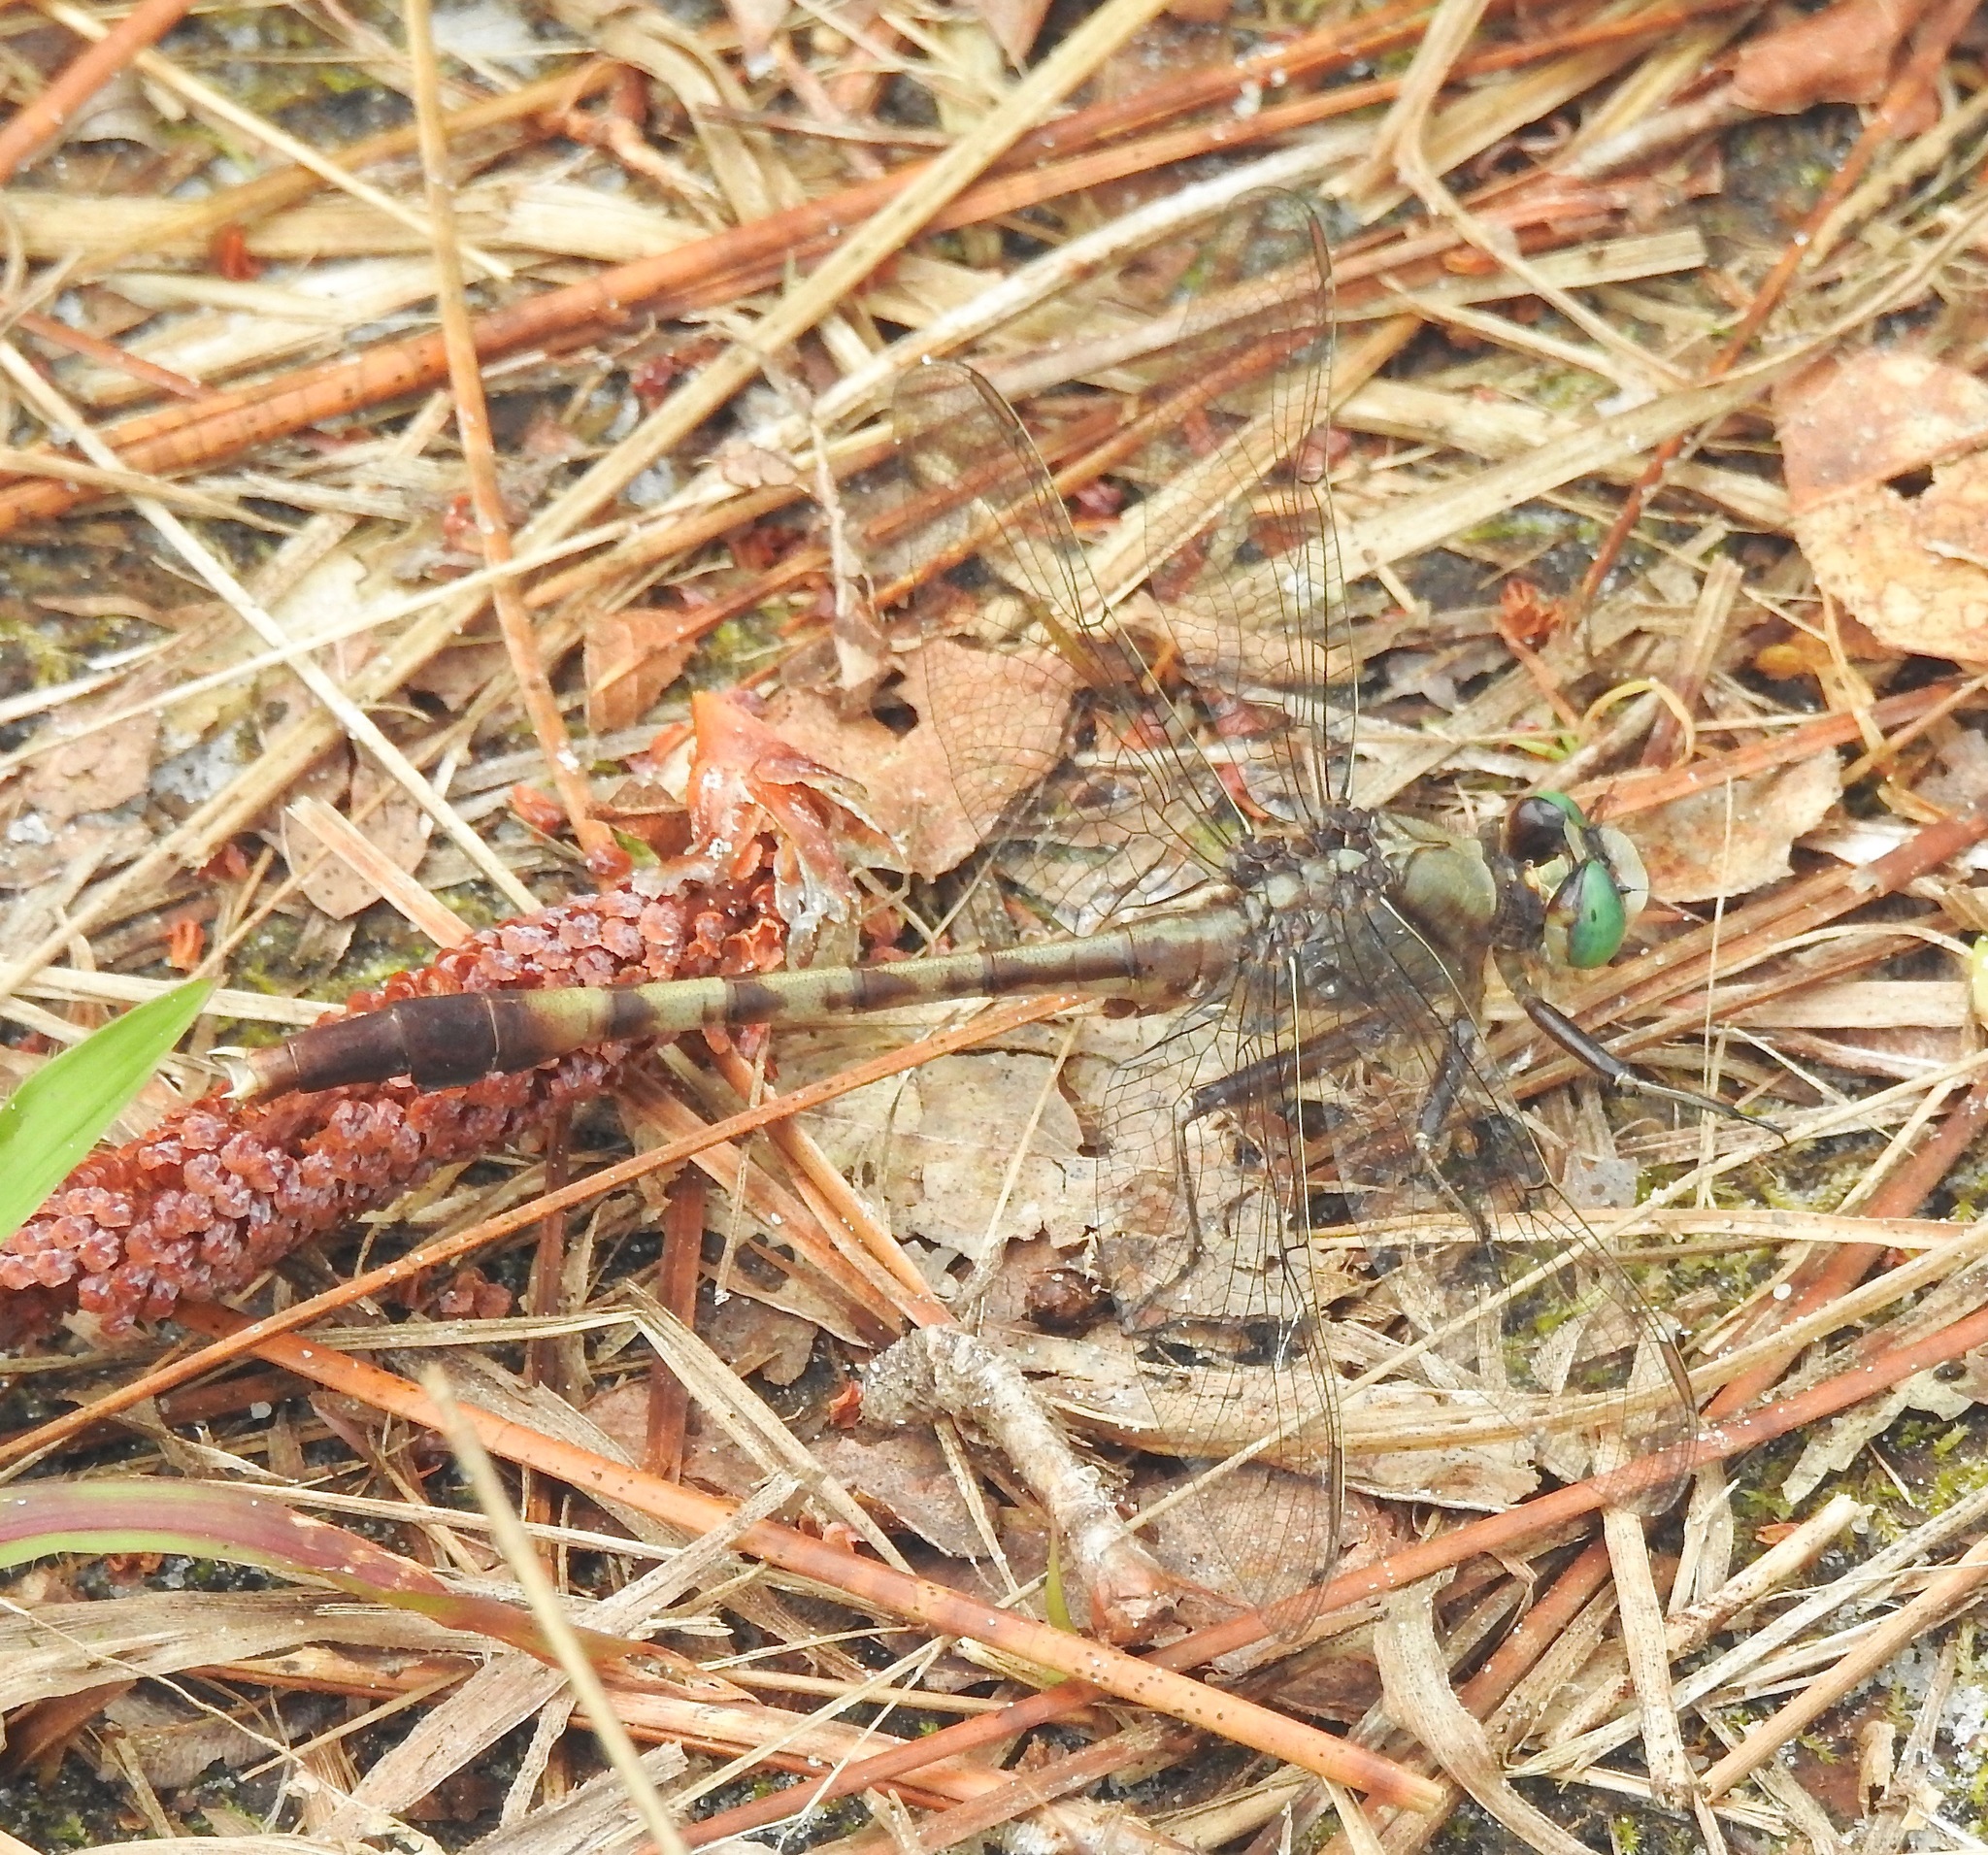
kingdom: Animalia
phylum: Arthropoda
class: Insecta
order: Odonata
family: Gomphidae
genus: Arigomphus
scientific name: Arigomphus pallidus
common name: Gray-green clubtail
